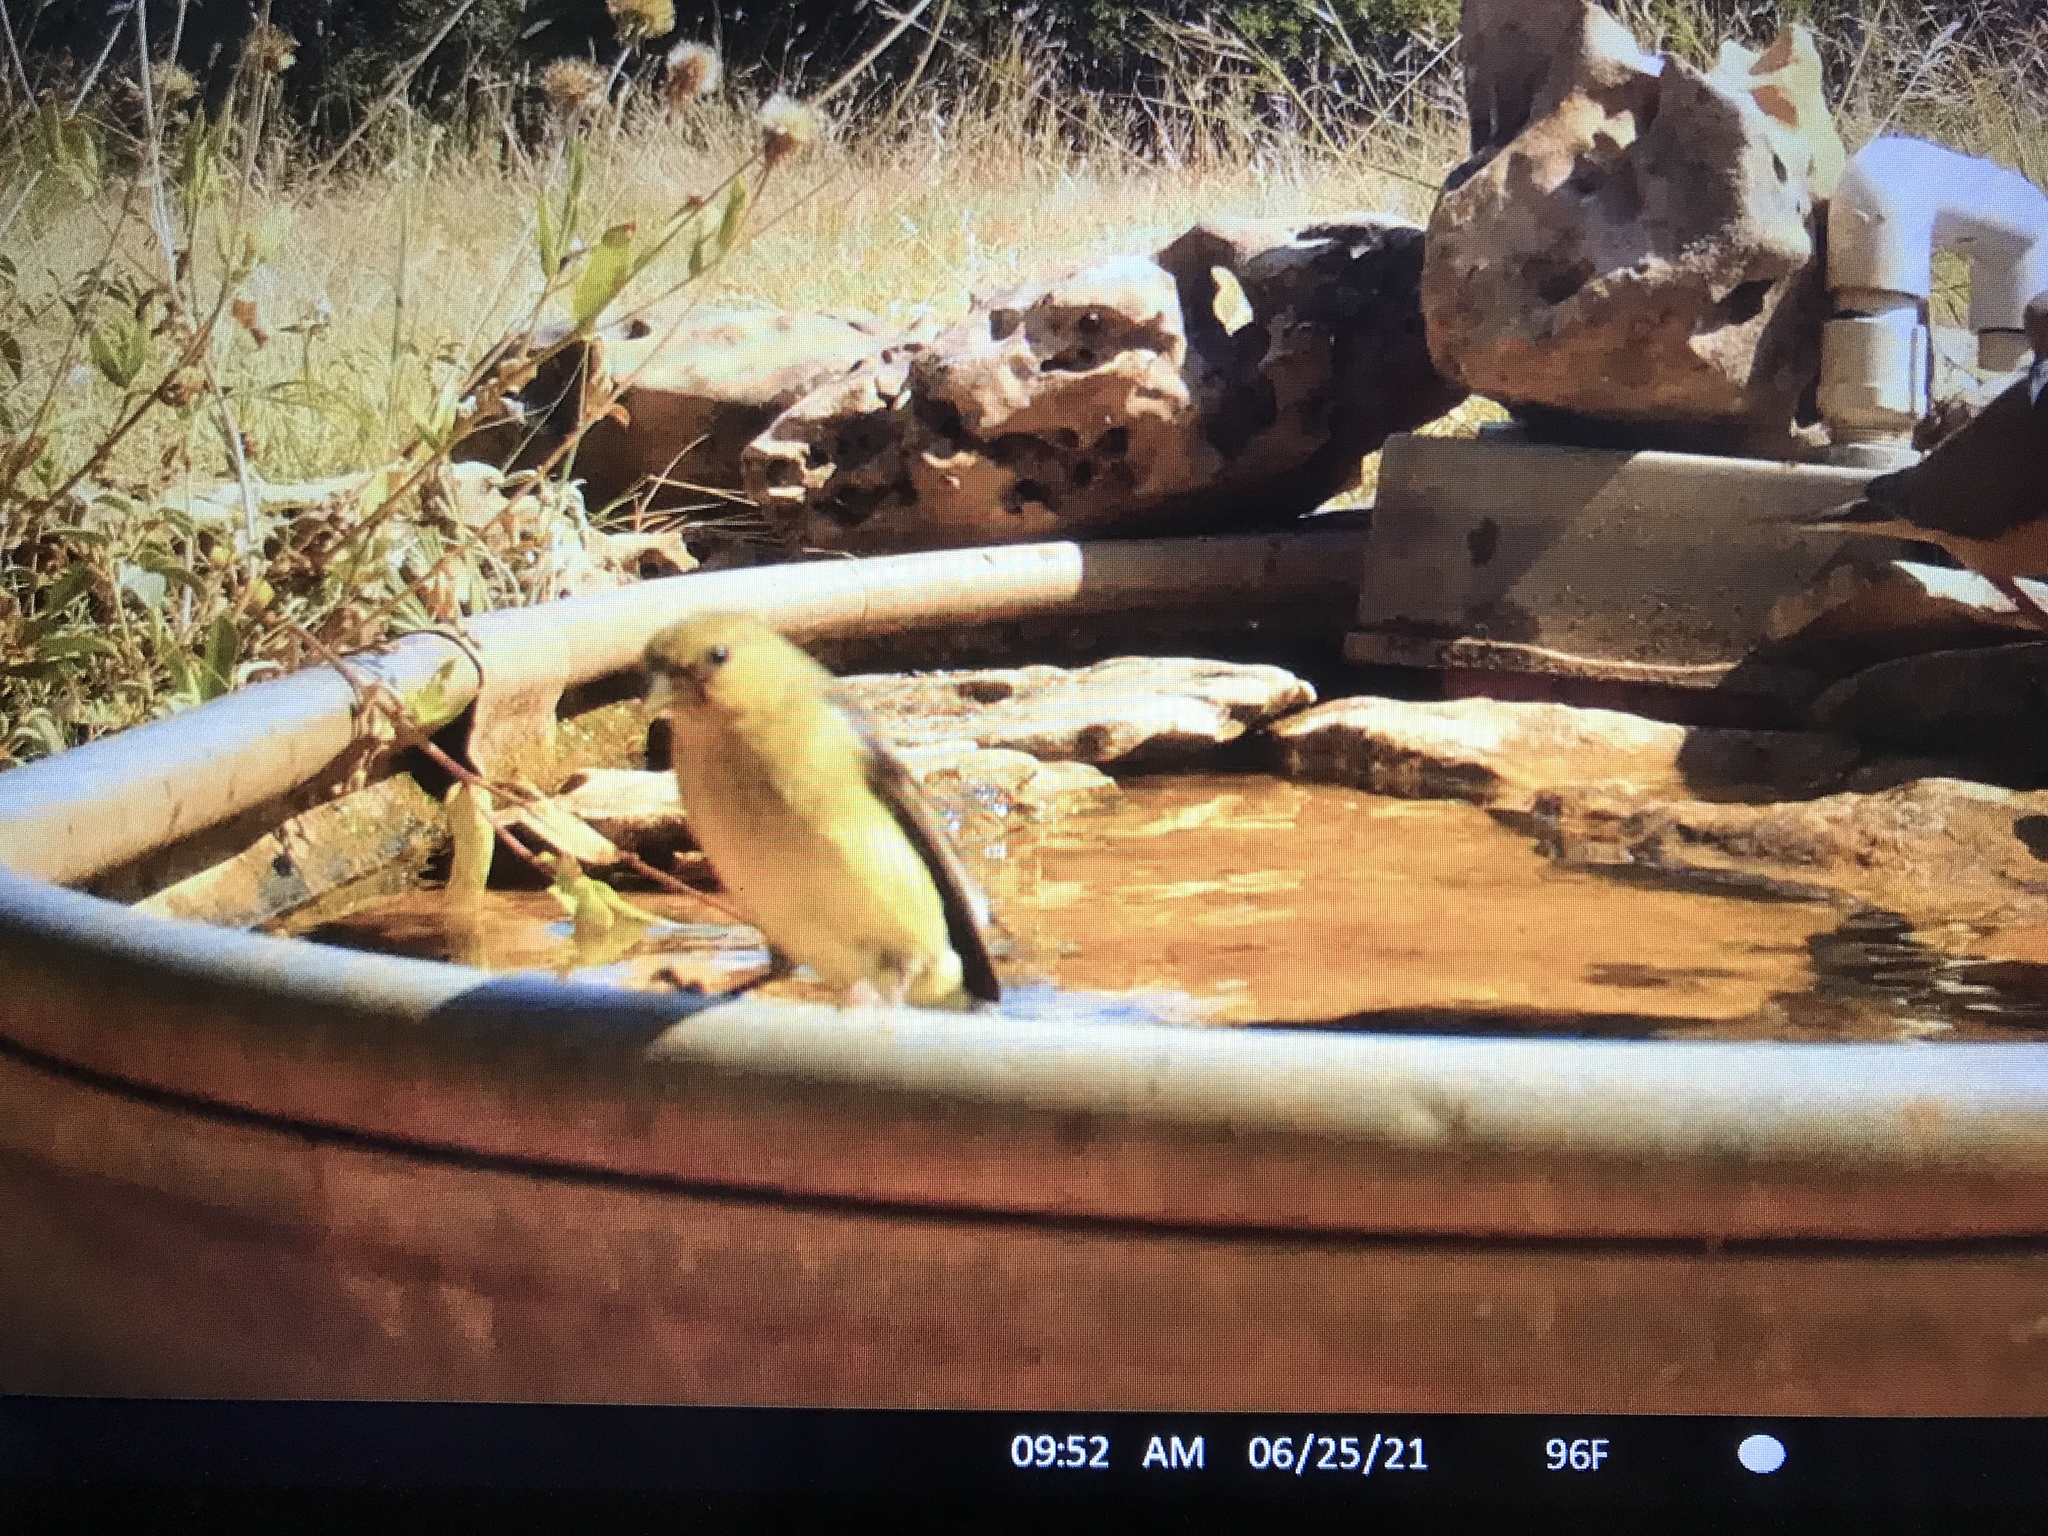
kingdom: Animalia
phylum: Chordata
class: Aves
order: Passeriformes
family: Fringillidae
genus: Spinus
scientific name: Spinus psaltria
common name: Lesser goldfinch
